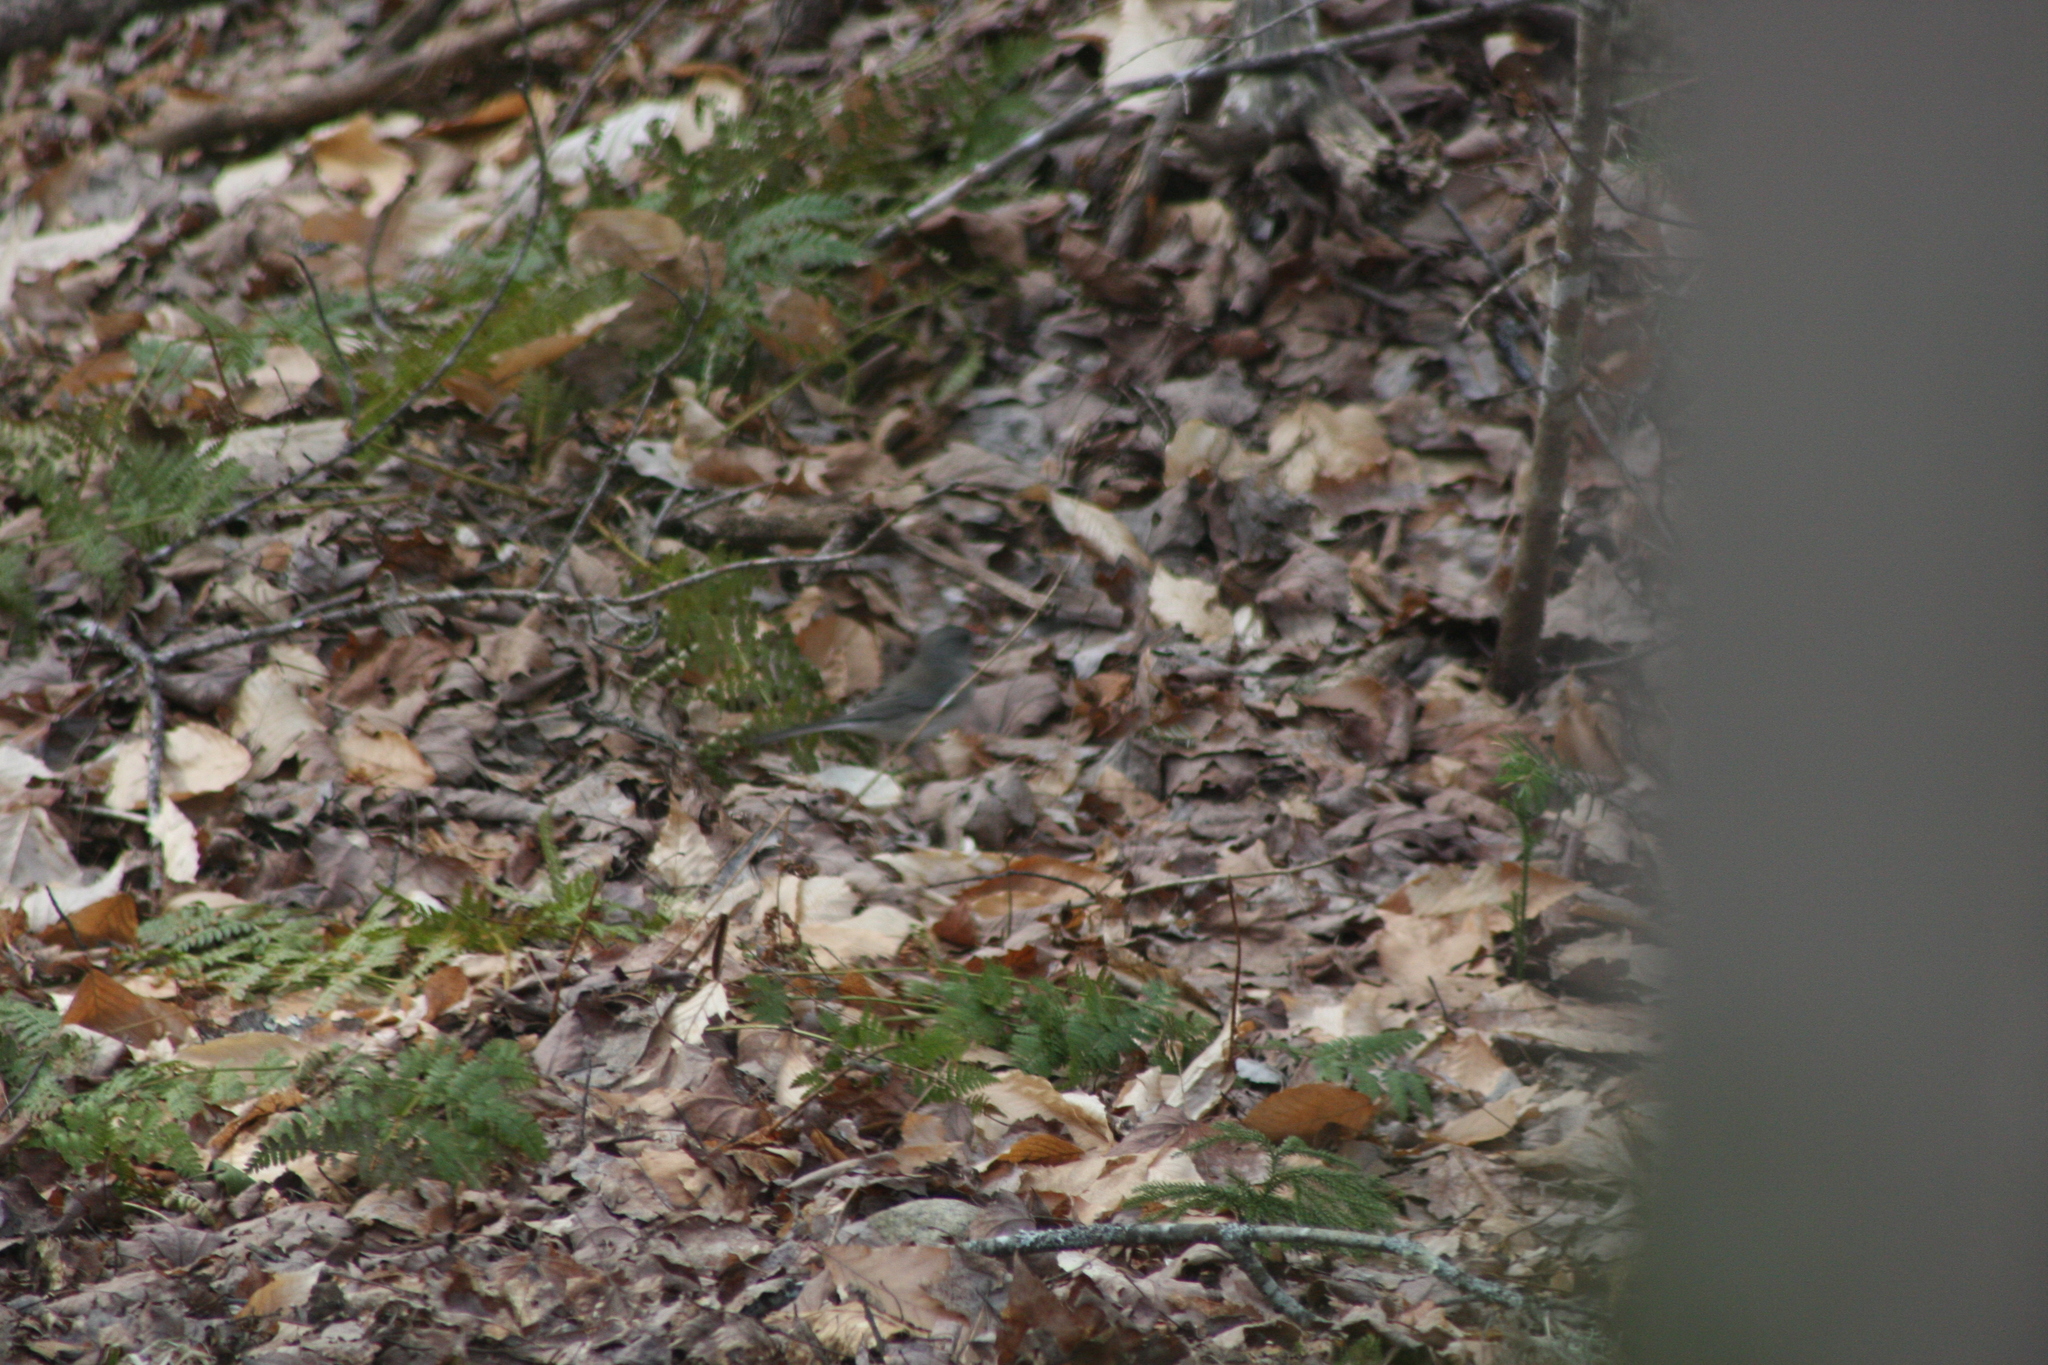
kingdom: Animalia
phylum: Chordata
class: Aves
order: Passeriformes
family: Passerellidae
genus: Junco
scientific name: Junco hyemalis
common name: Dark-eyed junco
